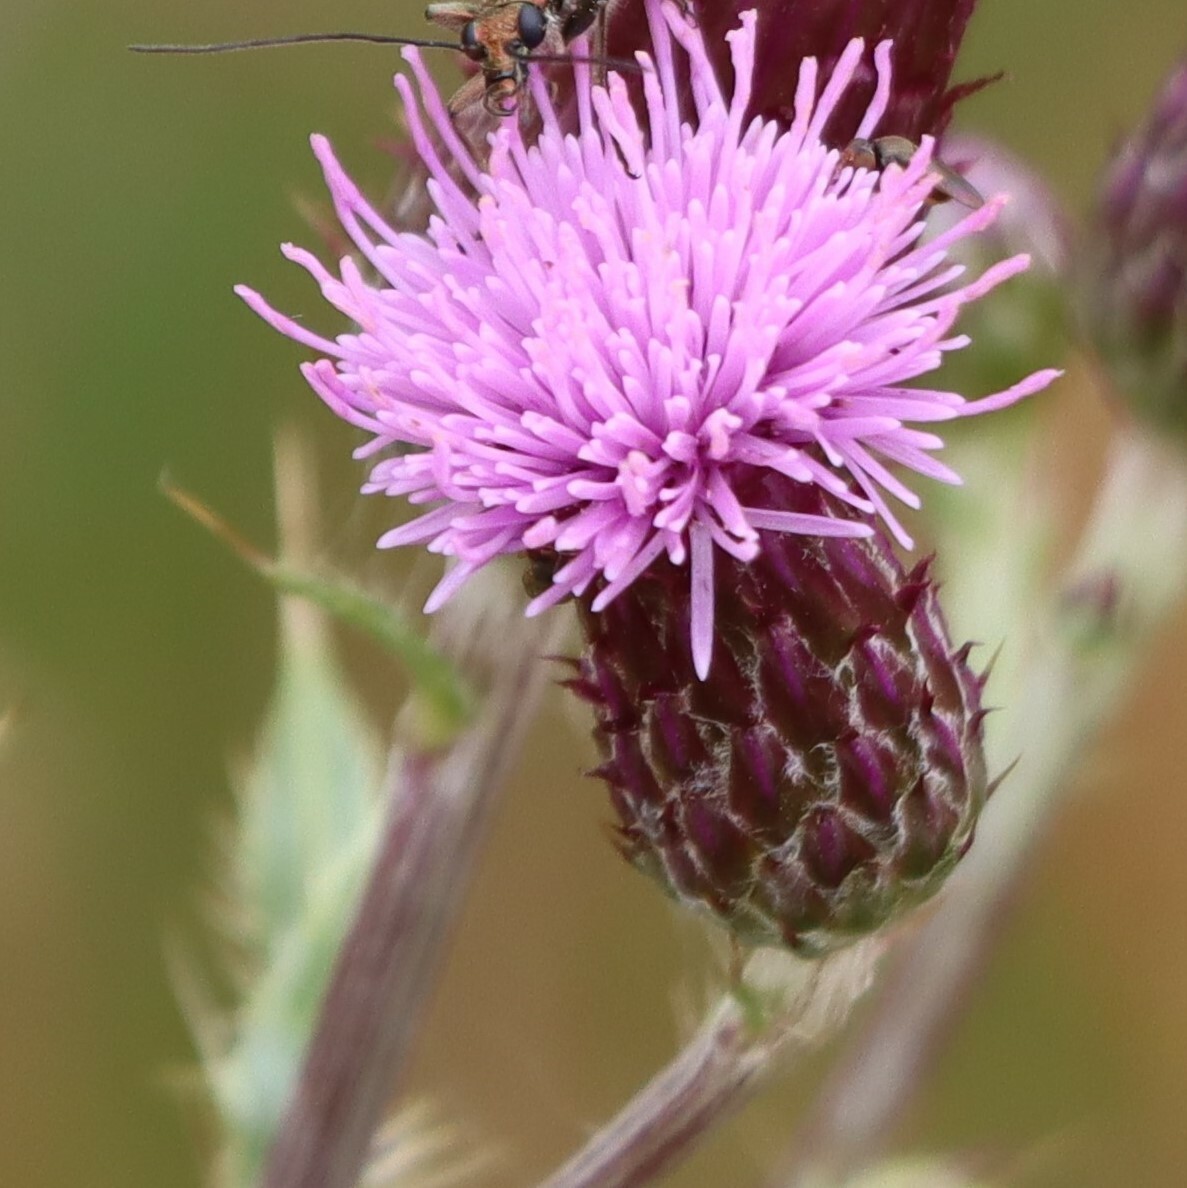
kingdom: Plantae
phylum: Tracheophyta
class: Magnoliopsida
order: Asterales
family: Asteraceae
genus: Cirsium
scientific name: Cirsium arvense
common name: Creeping thistle
